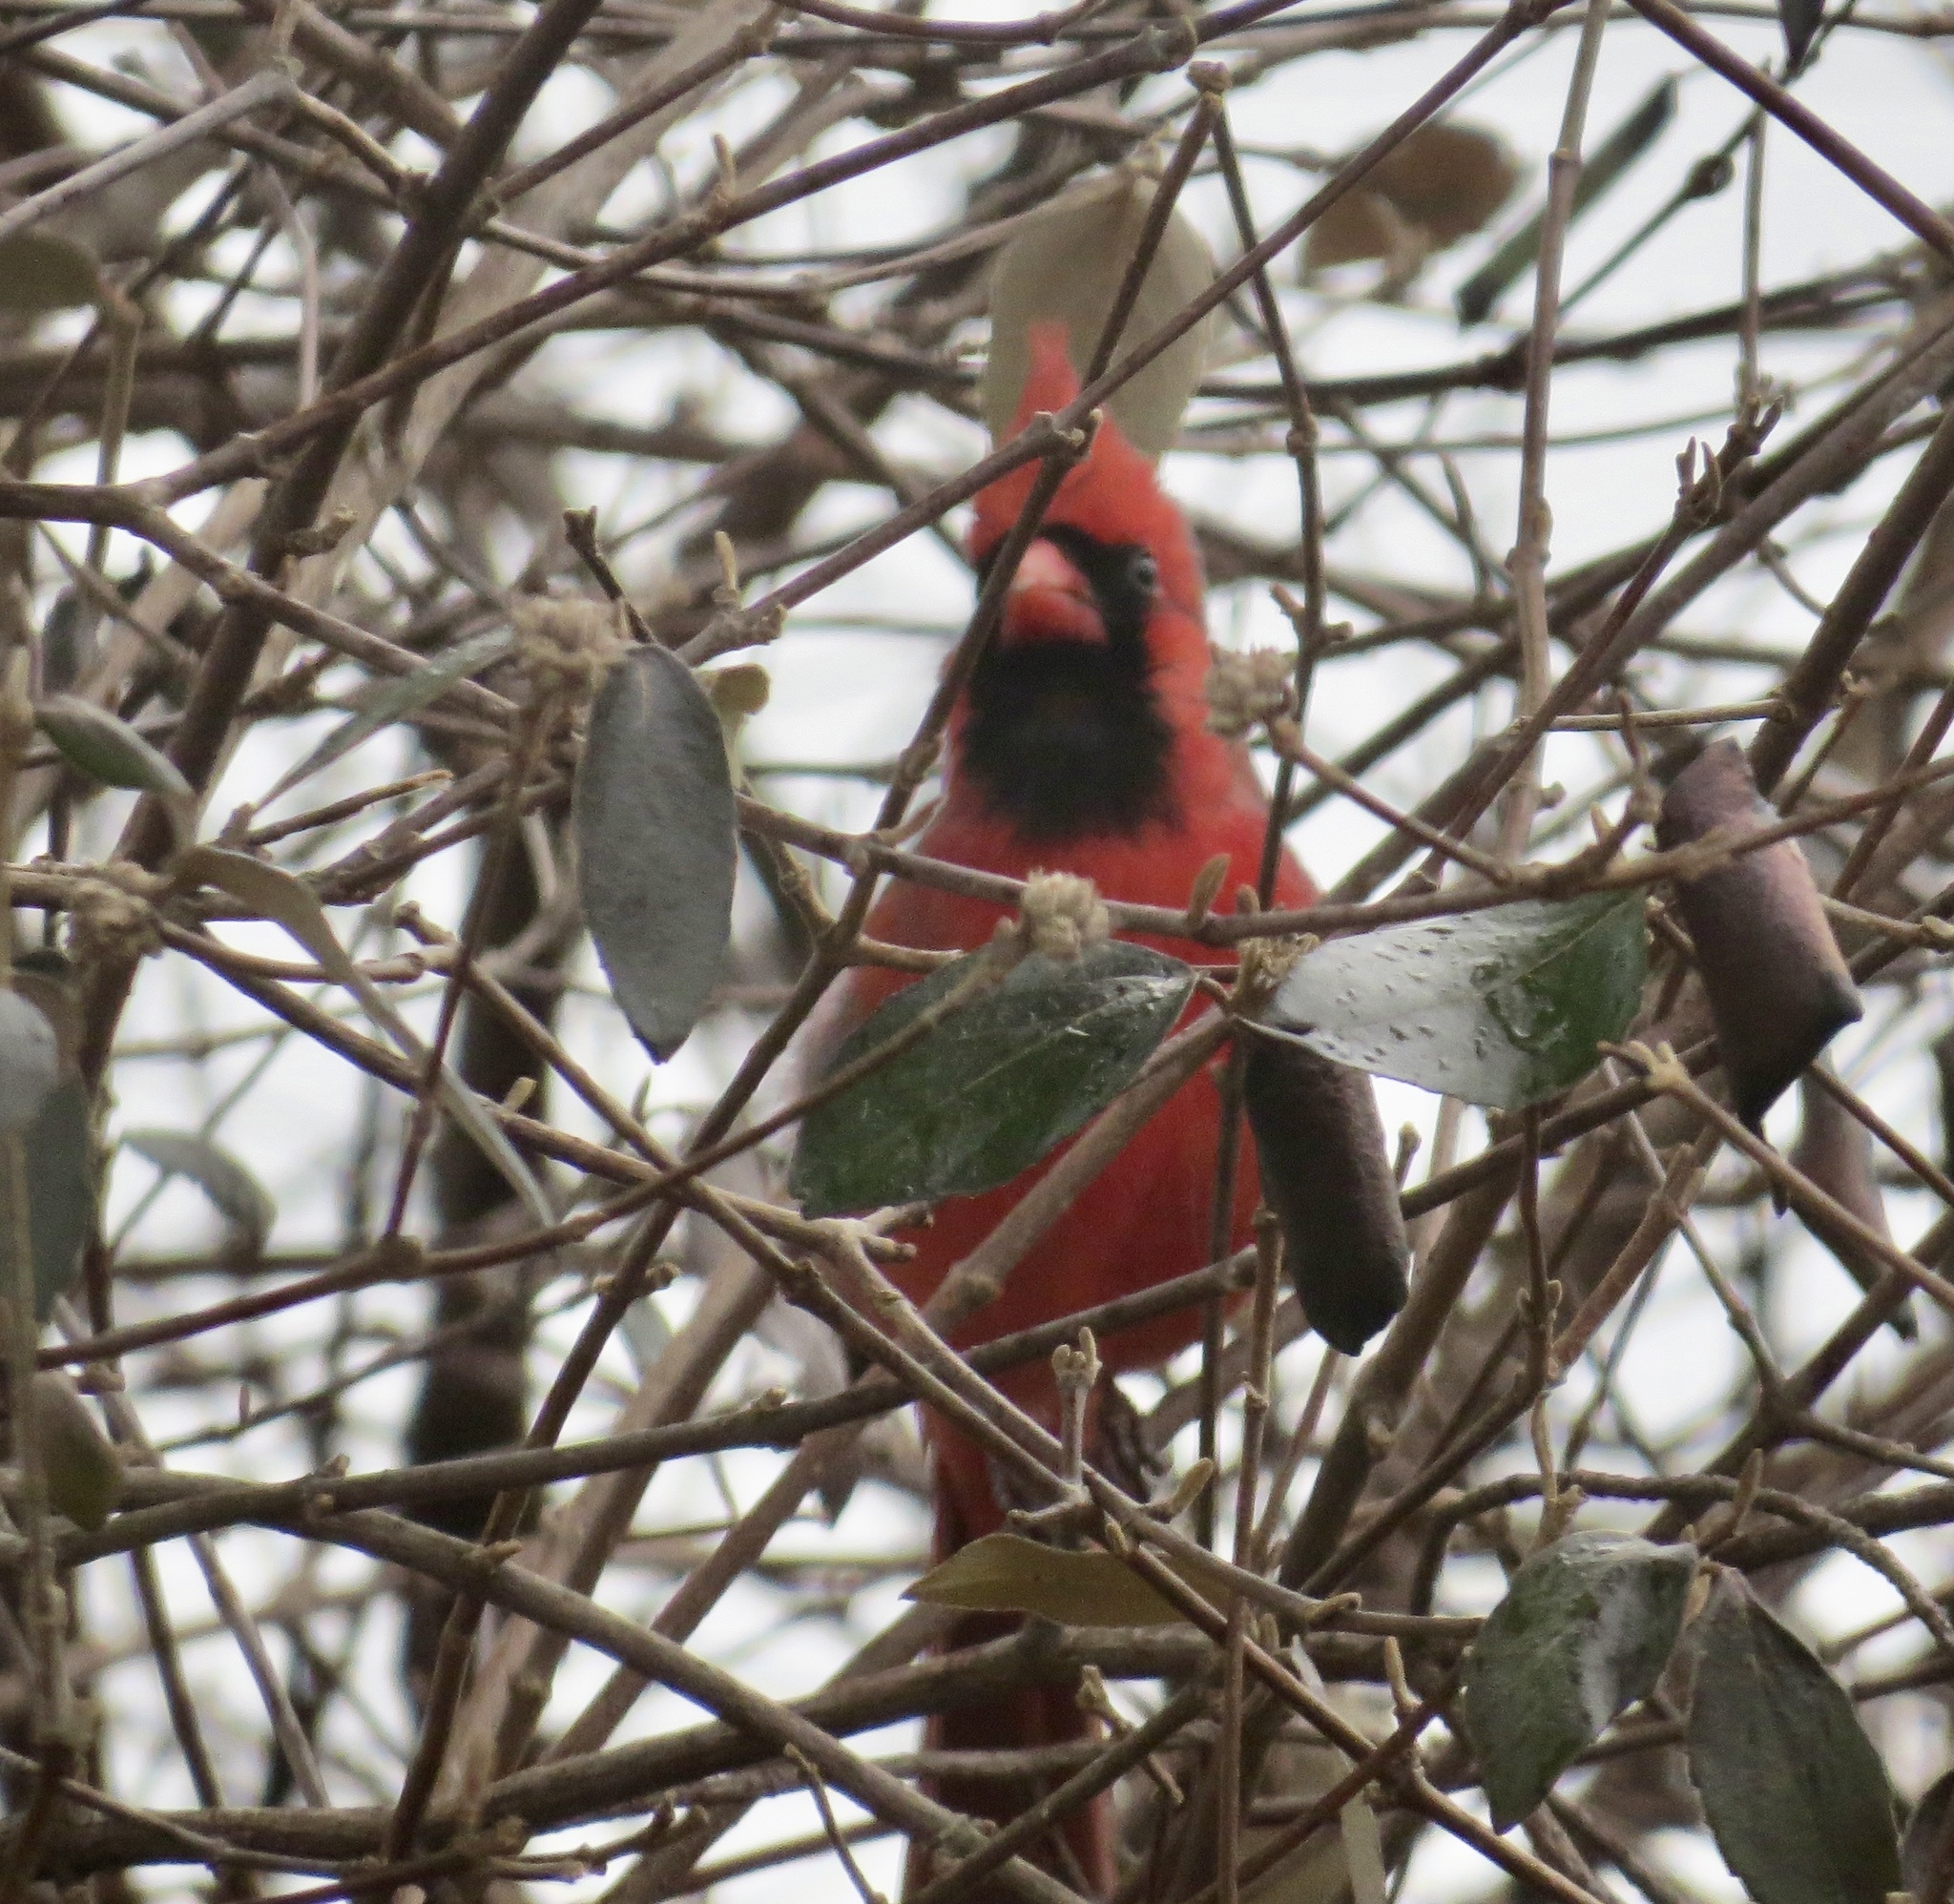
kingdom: Animalia
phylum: Chordata
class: Aves
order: Passeriformes
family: Cardinalidae
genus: Cardinalis
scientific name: Cardinalis cardinalis
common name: Northern cardinal
